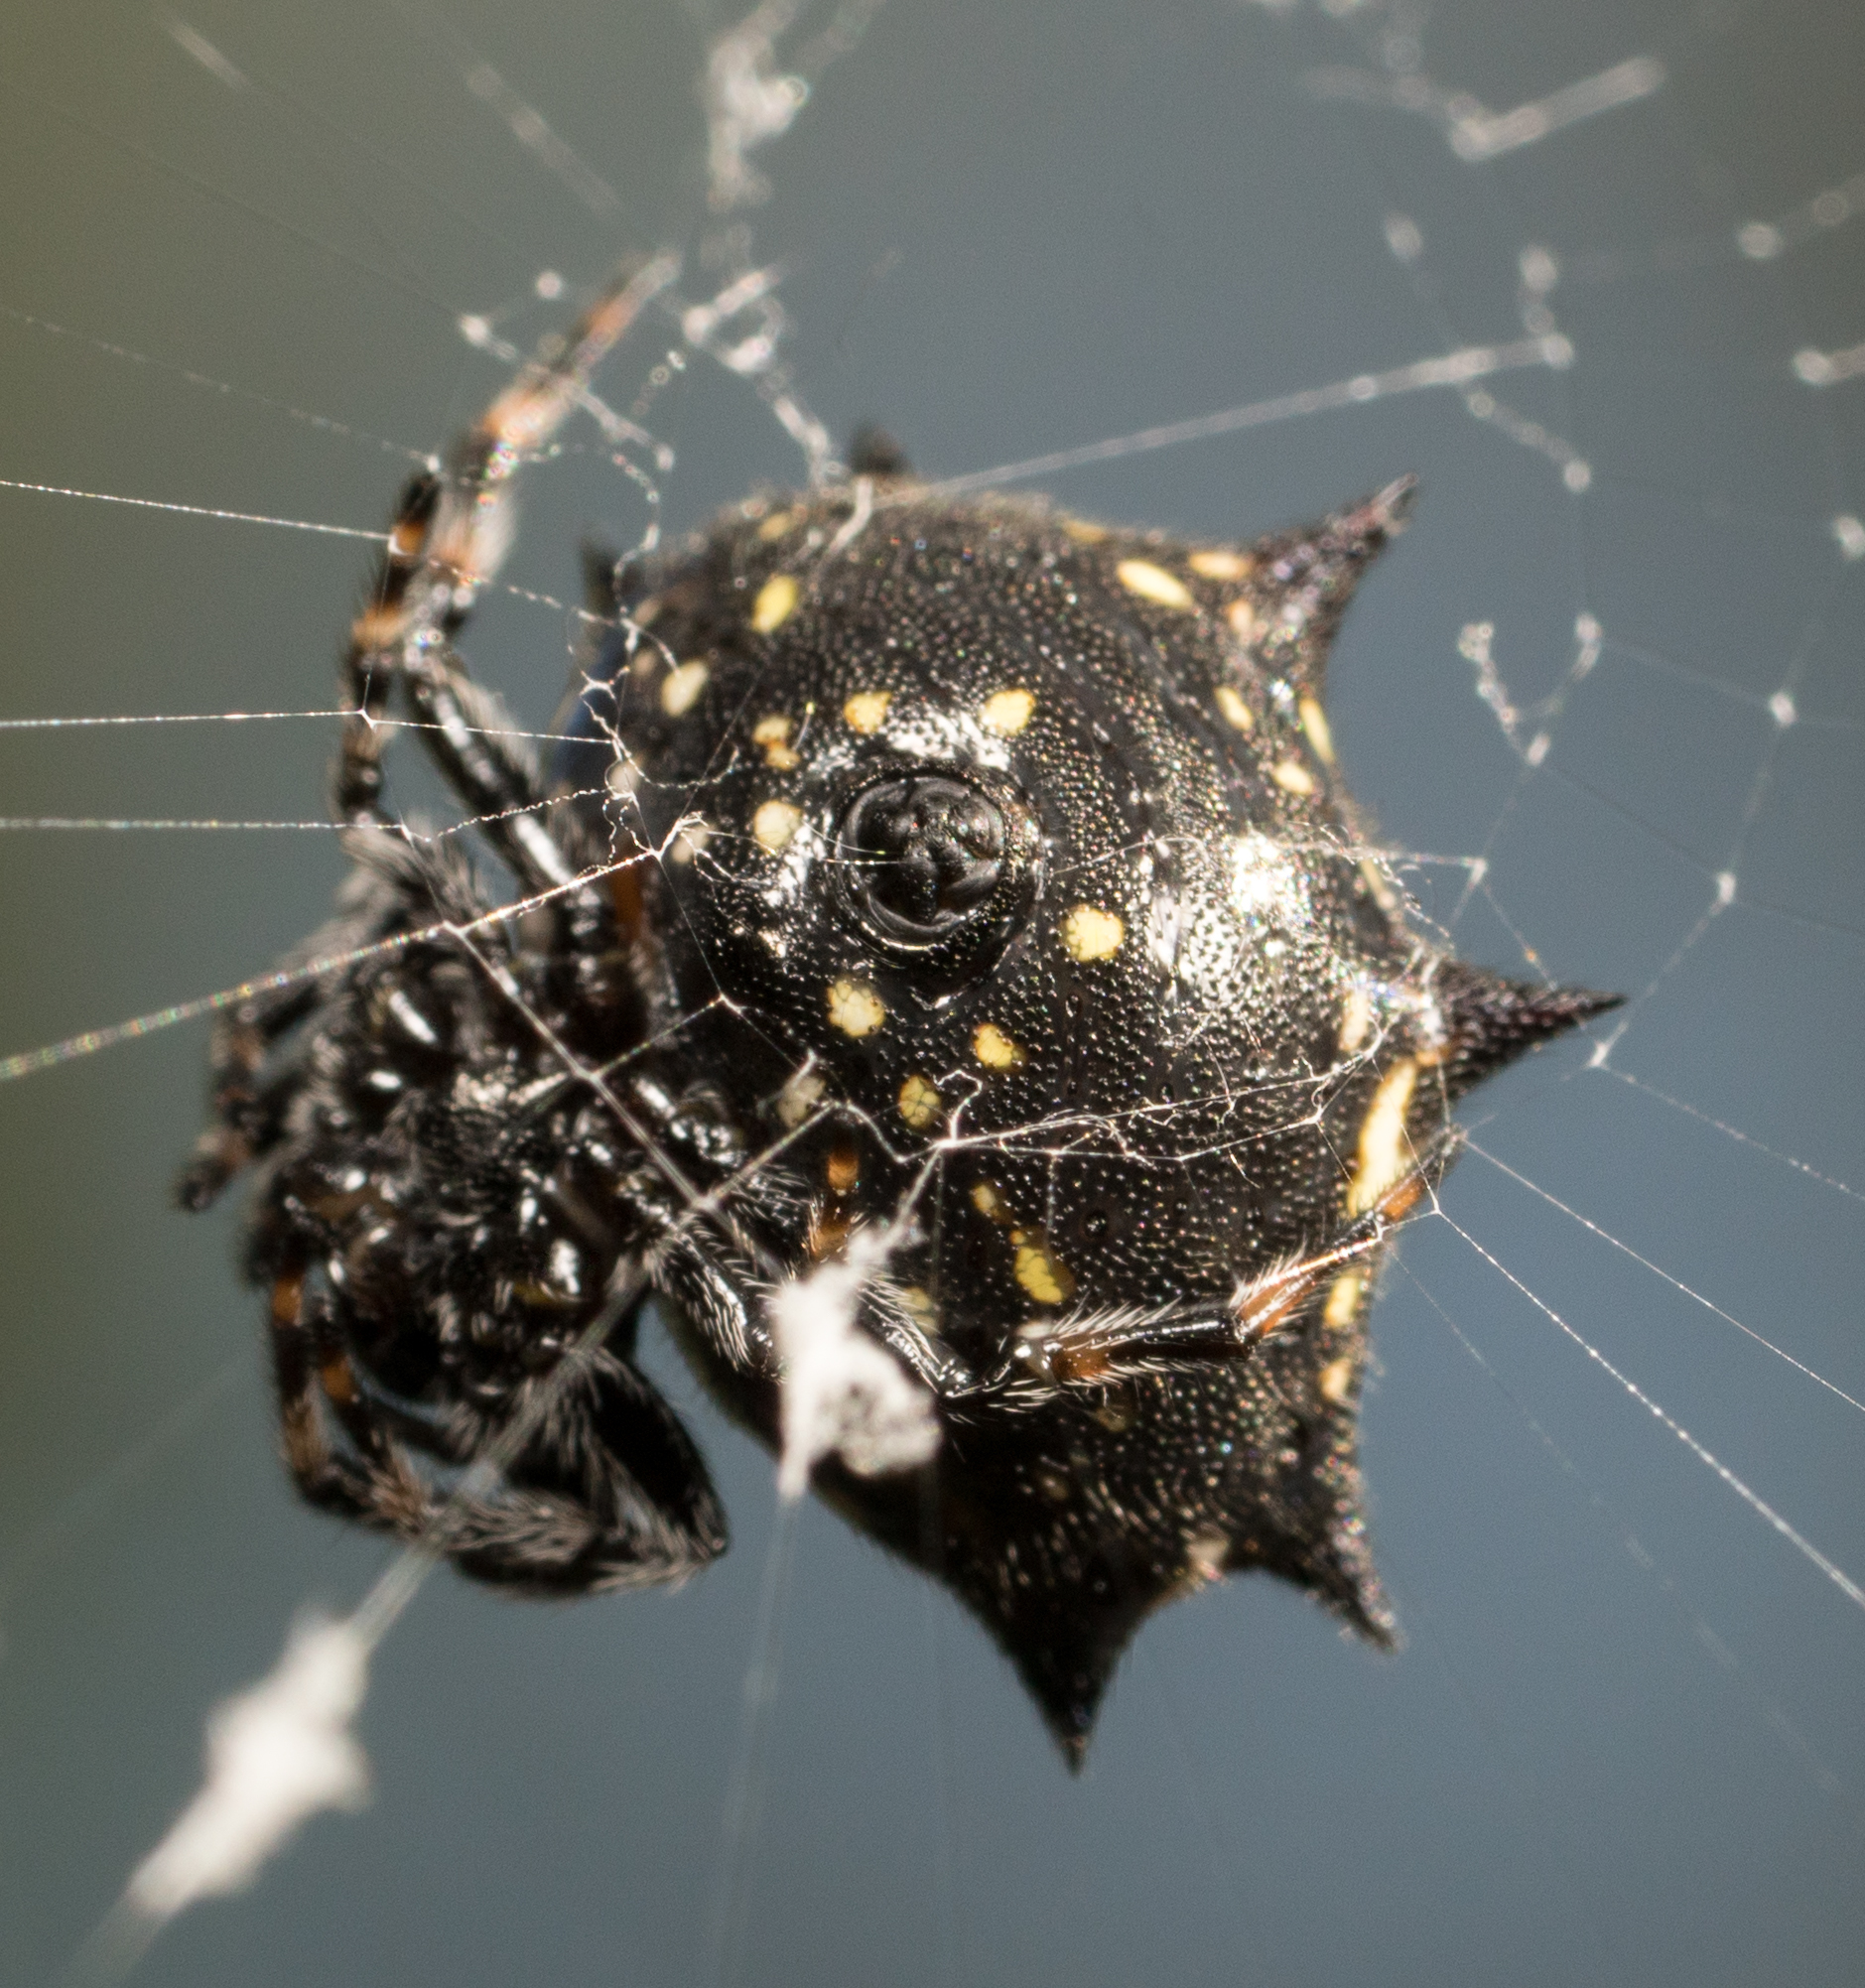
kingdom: Animalia
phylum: Arthropoda
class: Arachnida
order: Araneae
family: Araneidae
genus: Gasteracantha
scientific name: Gasteracantha cancriformis
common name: Orb weavers
